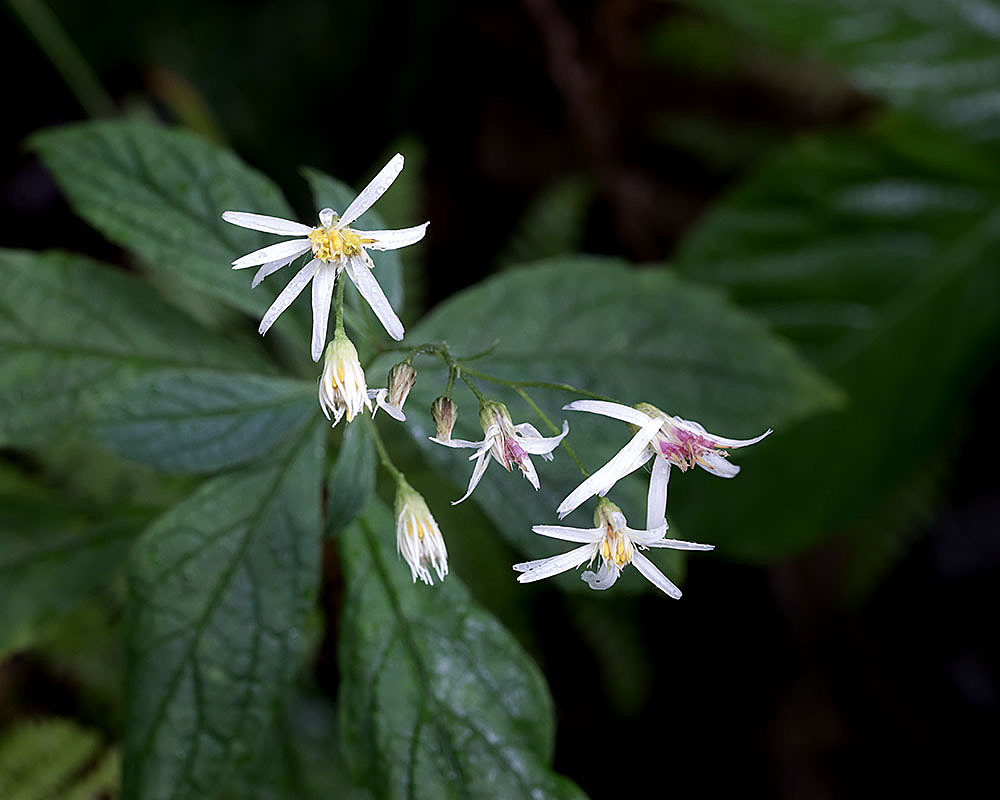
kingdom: Plantae
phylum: Tracheophyta
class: Magnoliopsida
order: Asterales
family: Asteraceae
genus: Oclemena
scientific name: Oclemena acuminata
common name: Mountain aster
